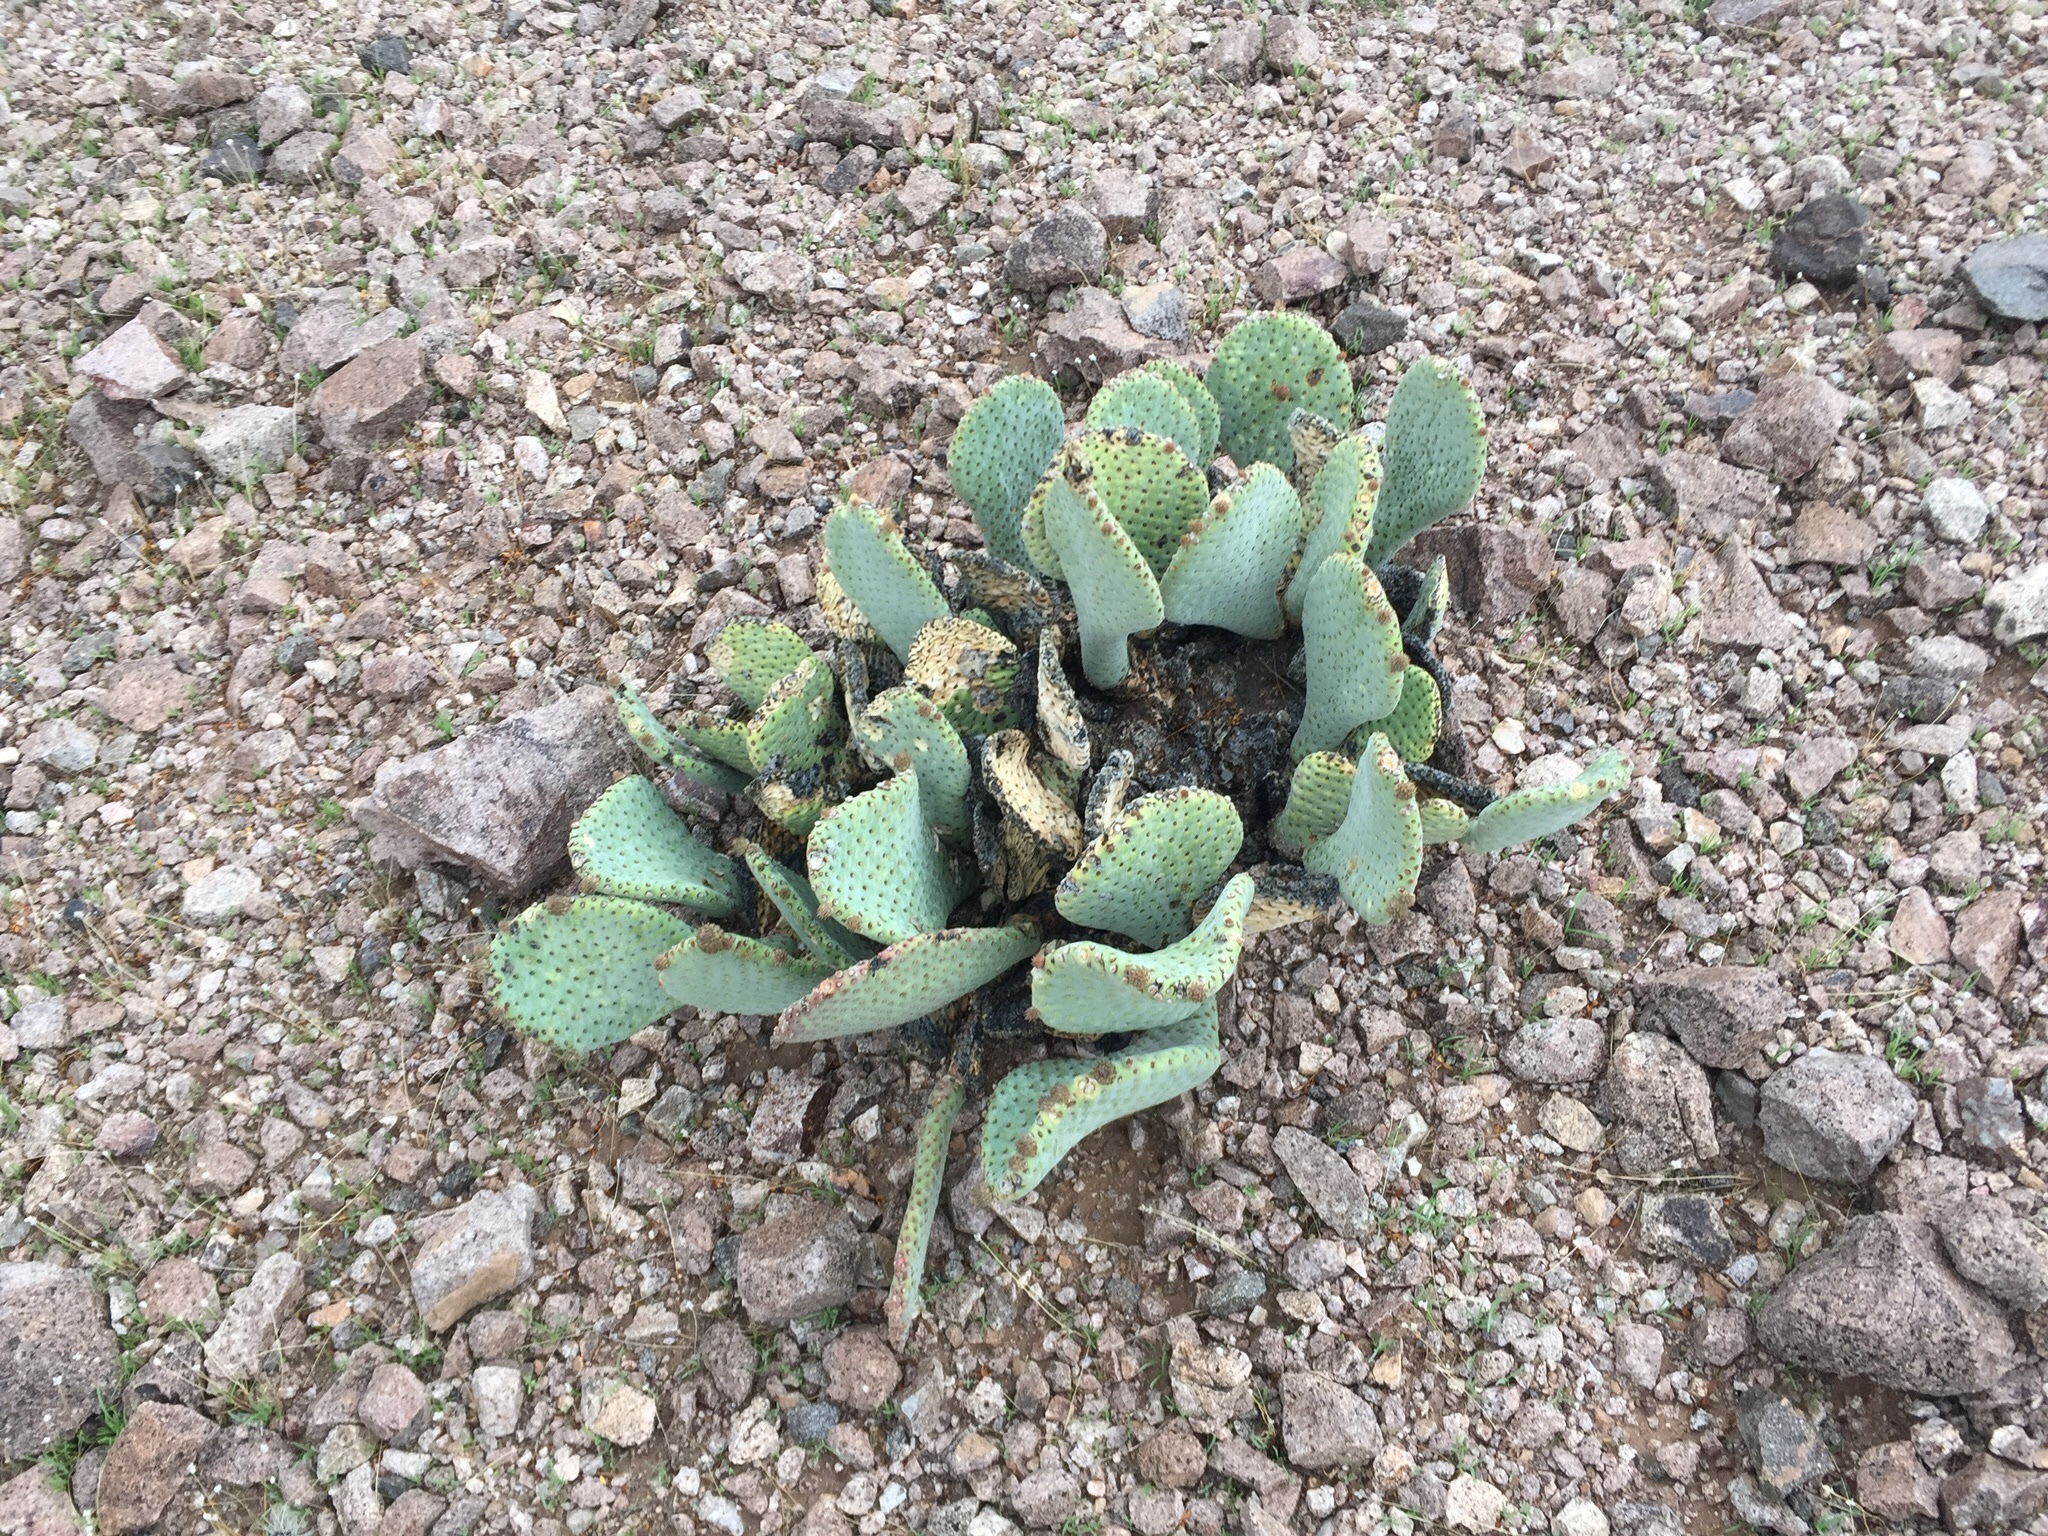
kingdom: Plantae
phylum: Tracheophyta
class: Magnoliopsida
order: Caryophyllales
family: Cactaceae
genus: Opuntia
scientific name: Opuntia basilaris
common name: Beavertail prickly-pear
